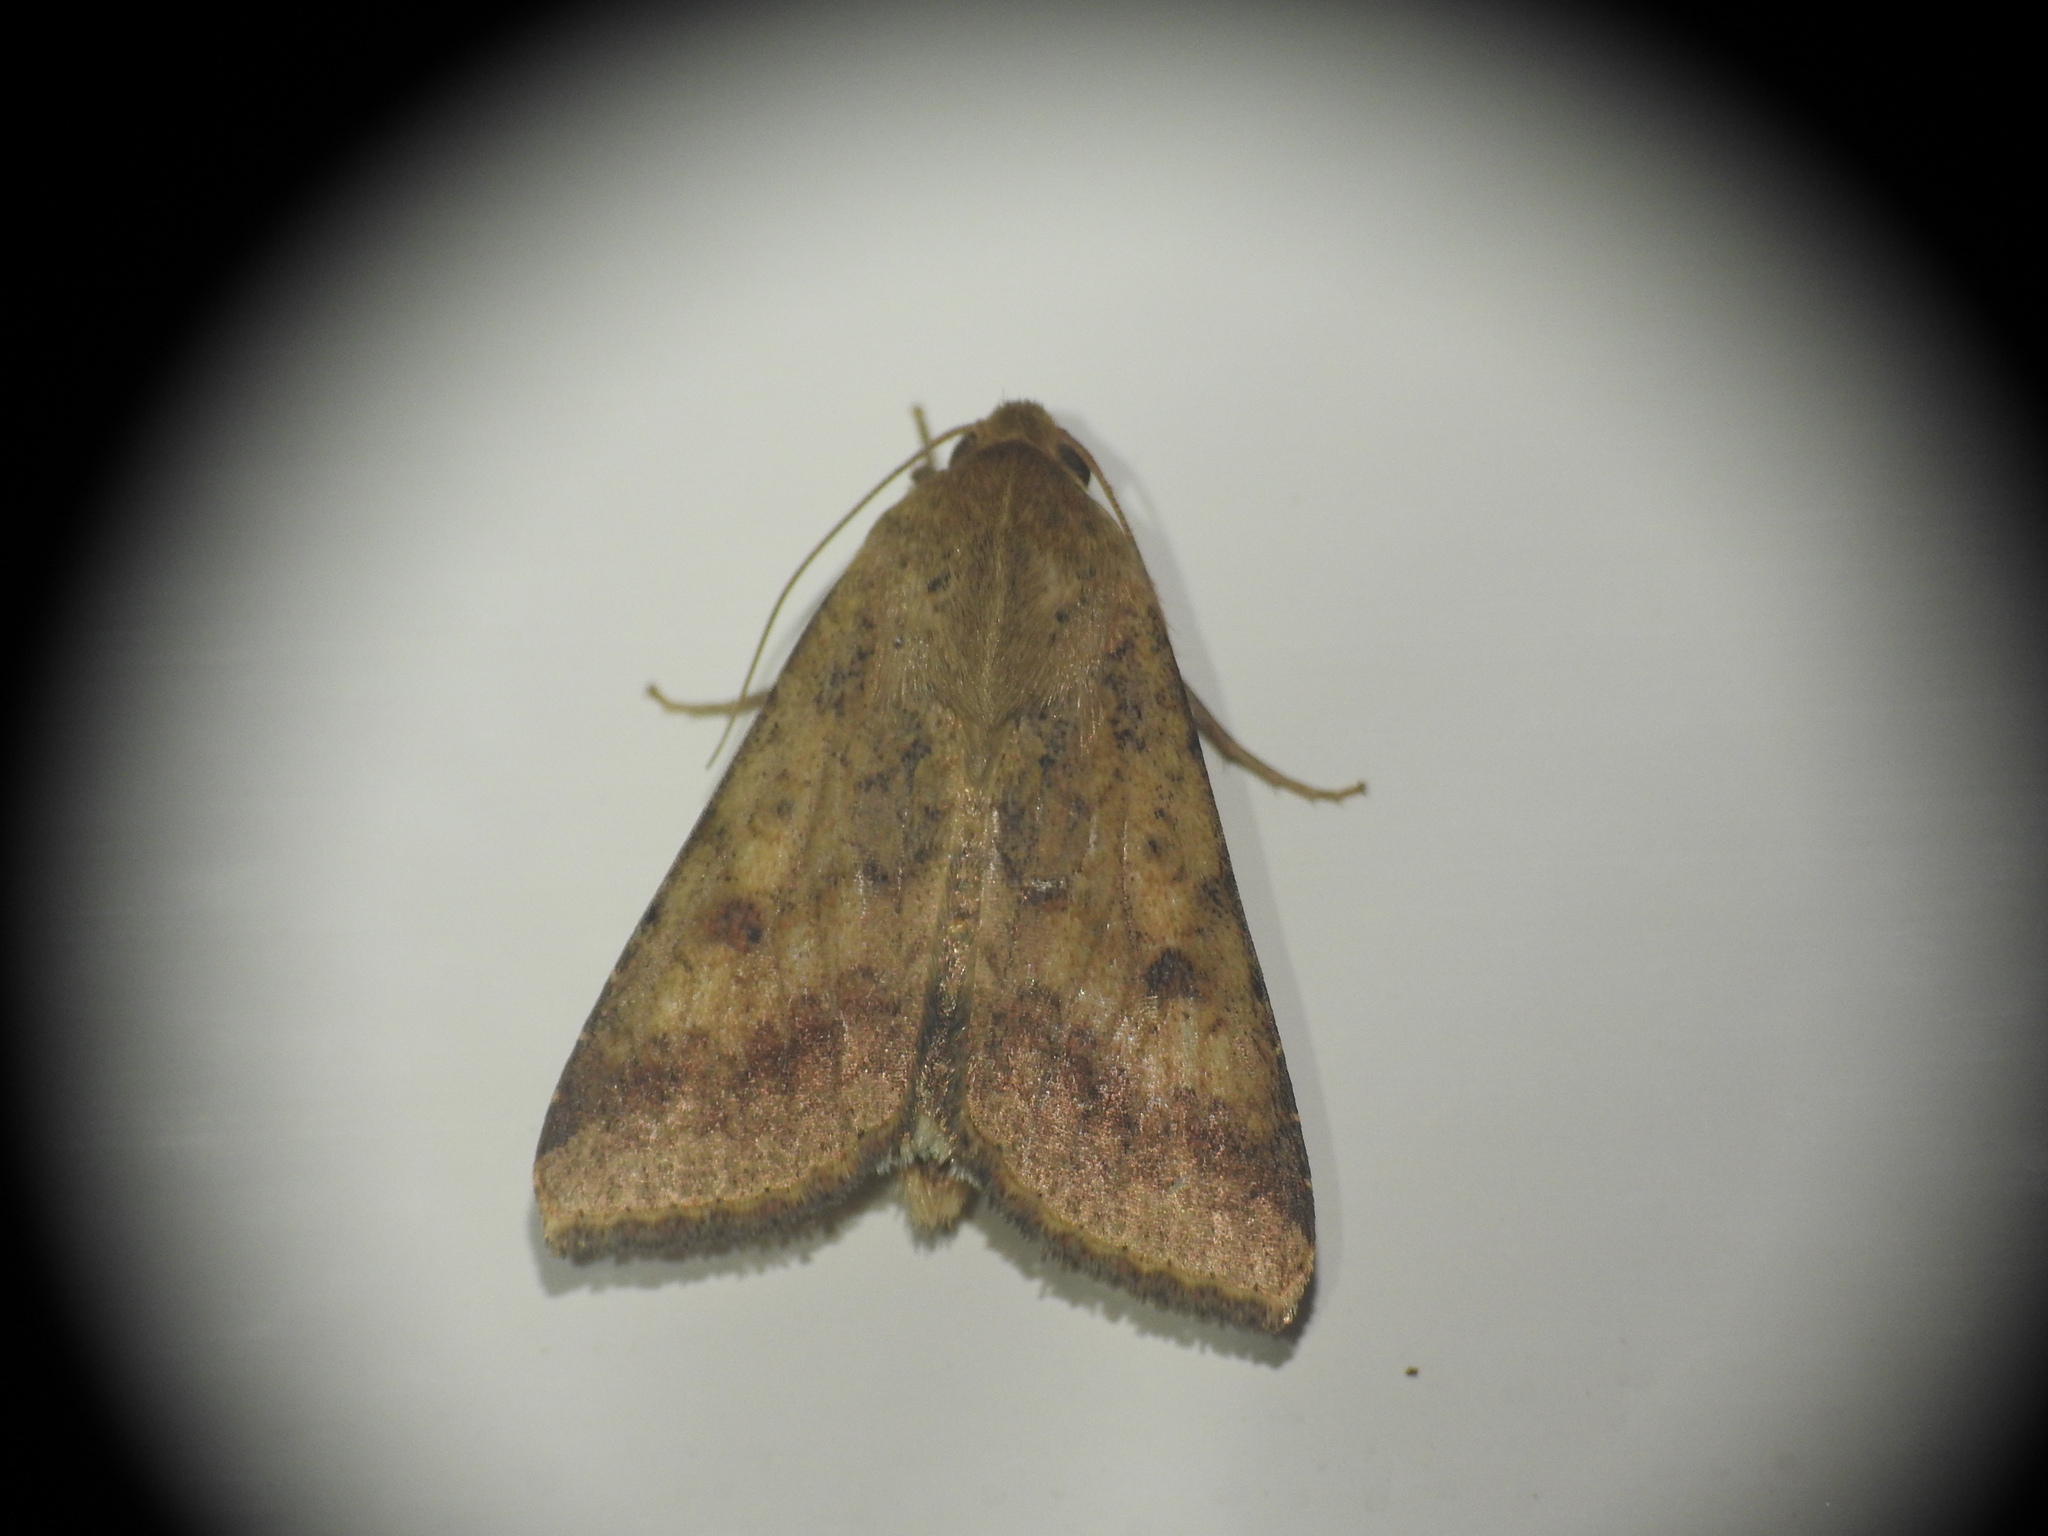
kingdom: Animalia
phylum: Arthropoda
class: Insecta
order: Lepidoptera
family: Noctuidae
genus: Helicoverpa
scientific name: Helicoverpa armigera
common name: Cotton bollworm
